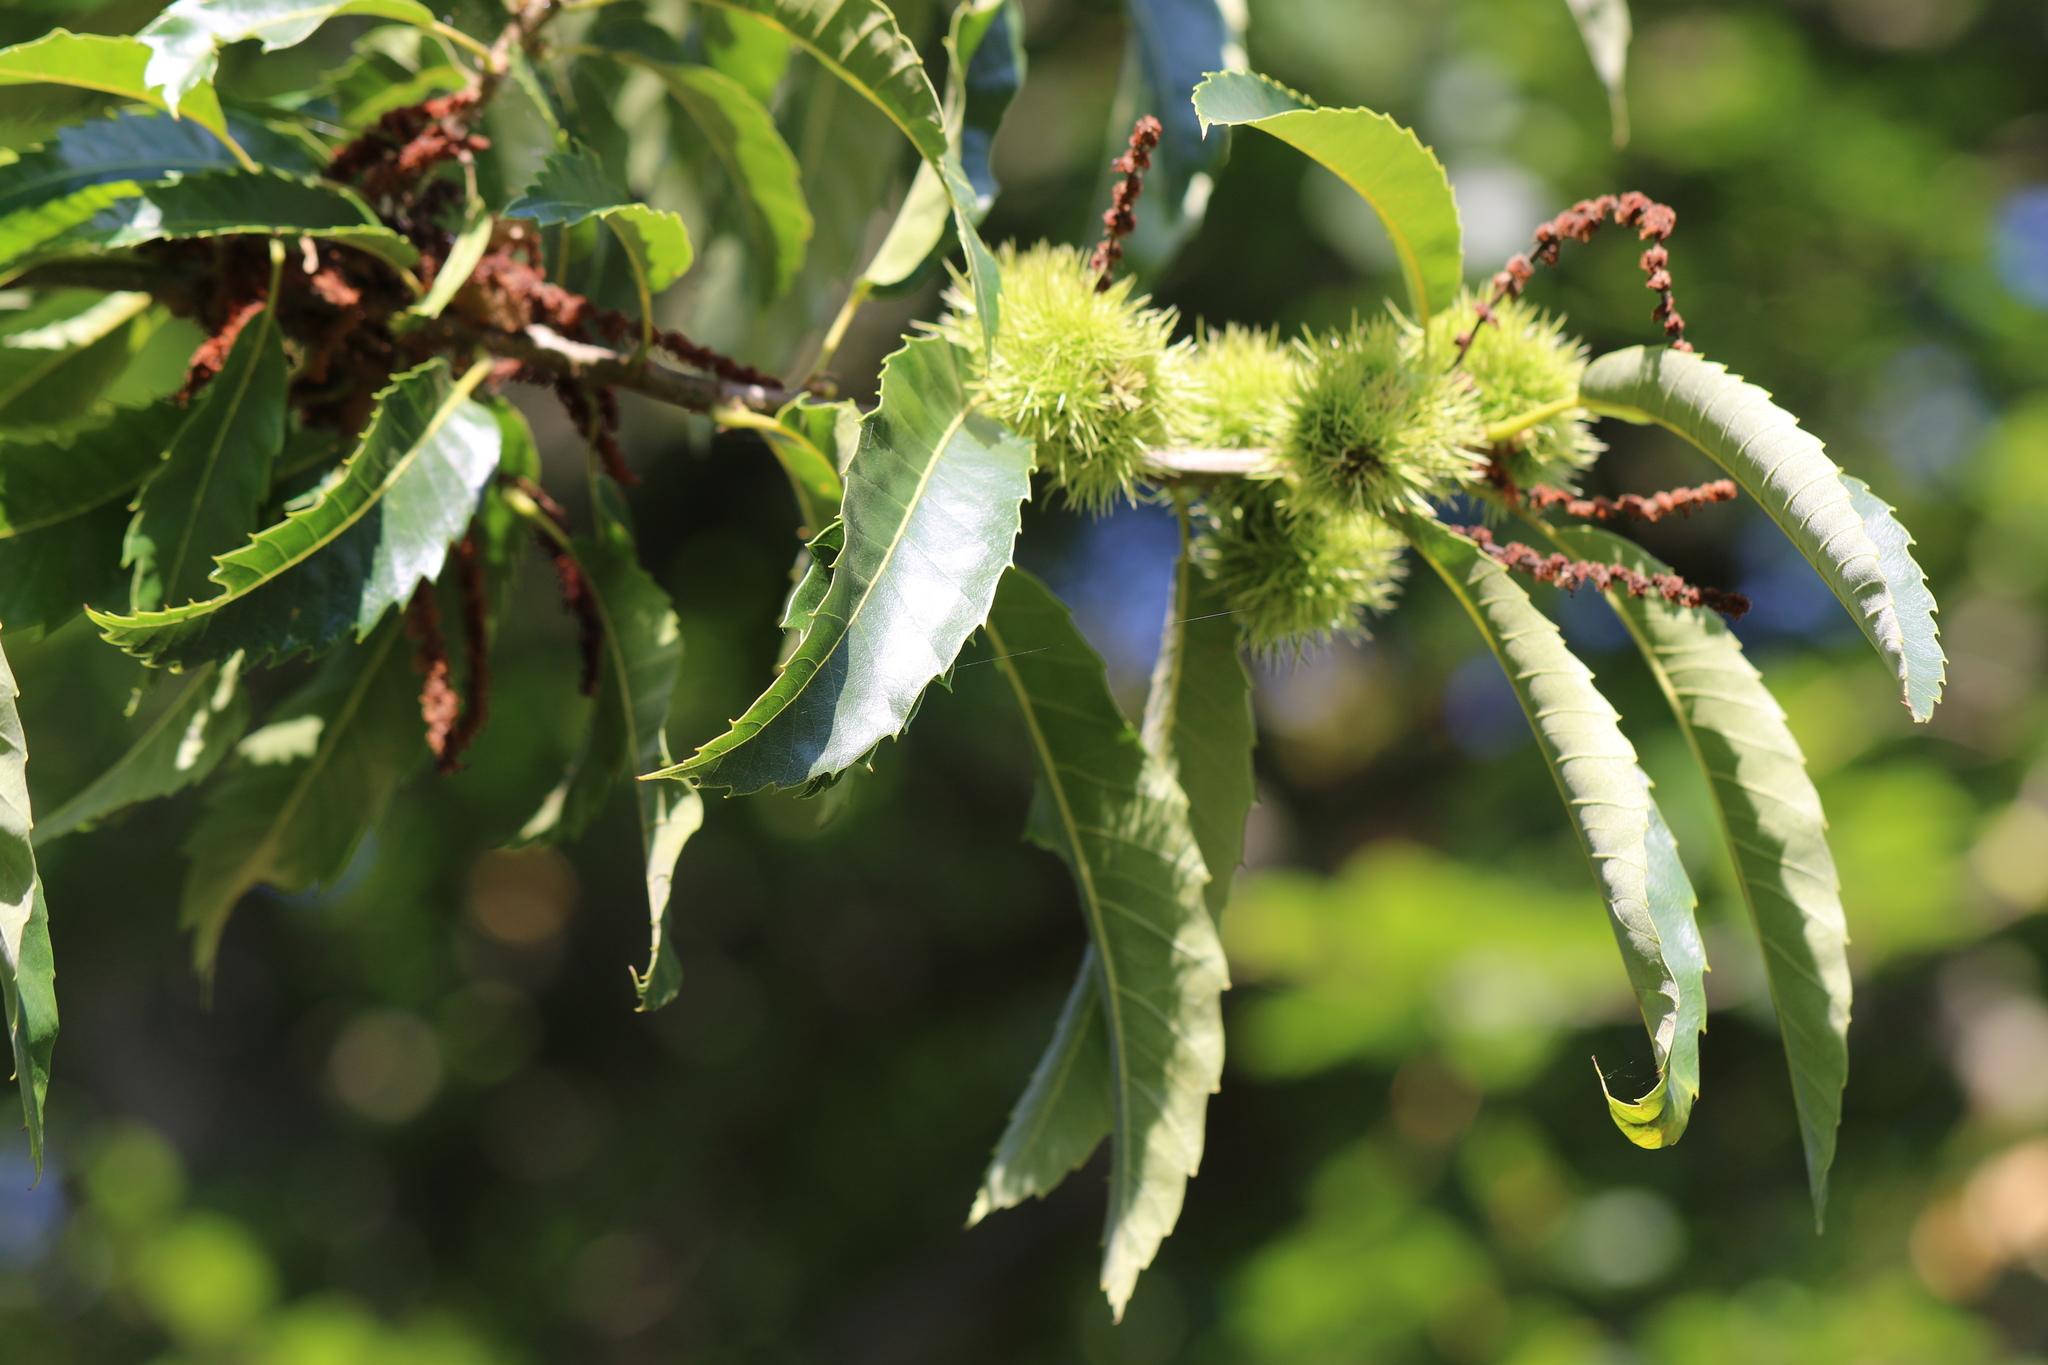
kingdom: Plantae
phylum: Tracheophyta
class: Magnoliopsida
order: Fagales
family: Fagaceae
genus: Castanea
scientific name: Castanea sativa
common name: Sweet chestnut
